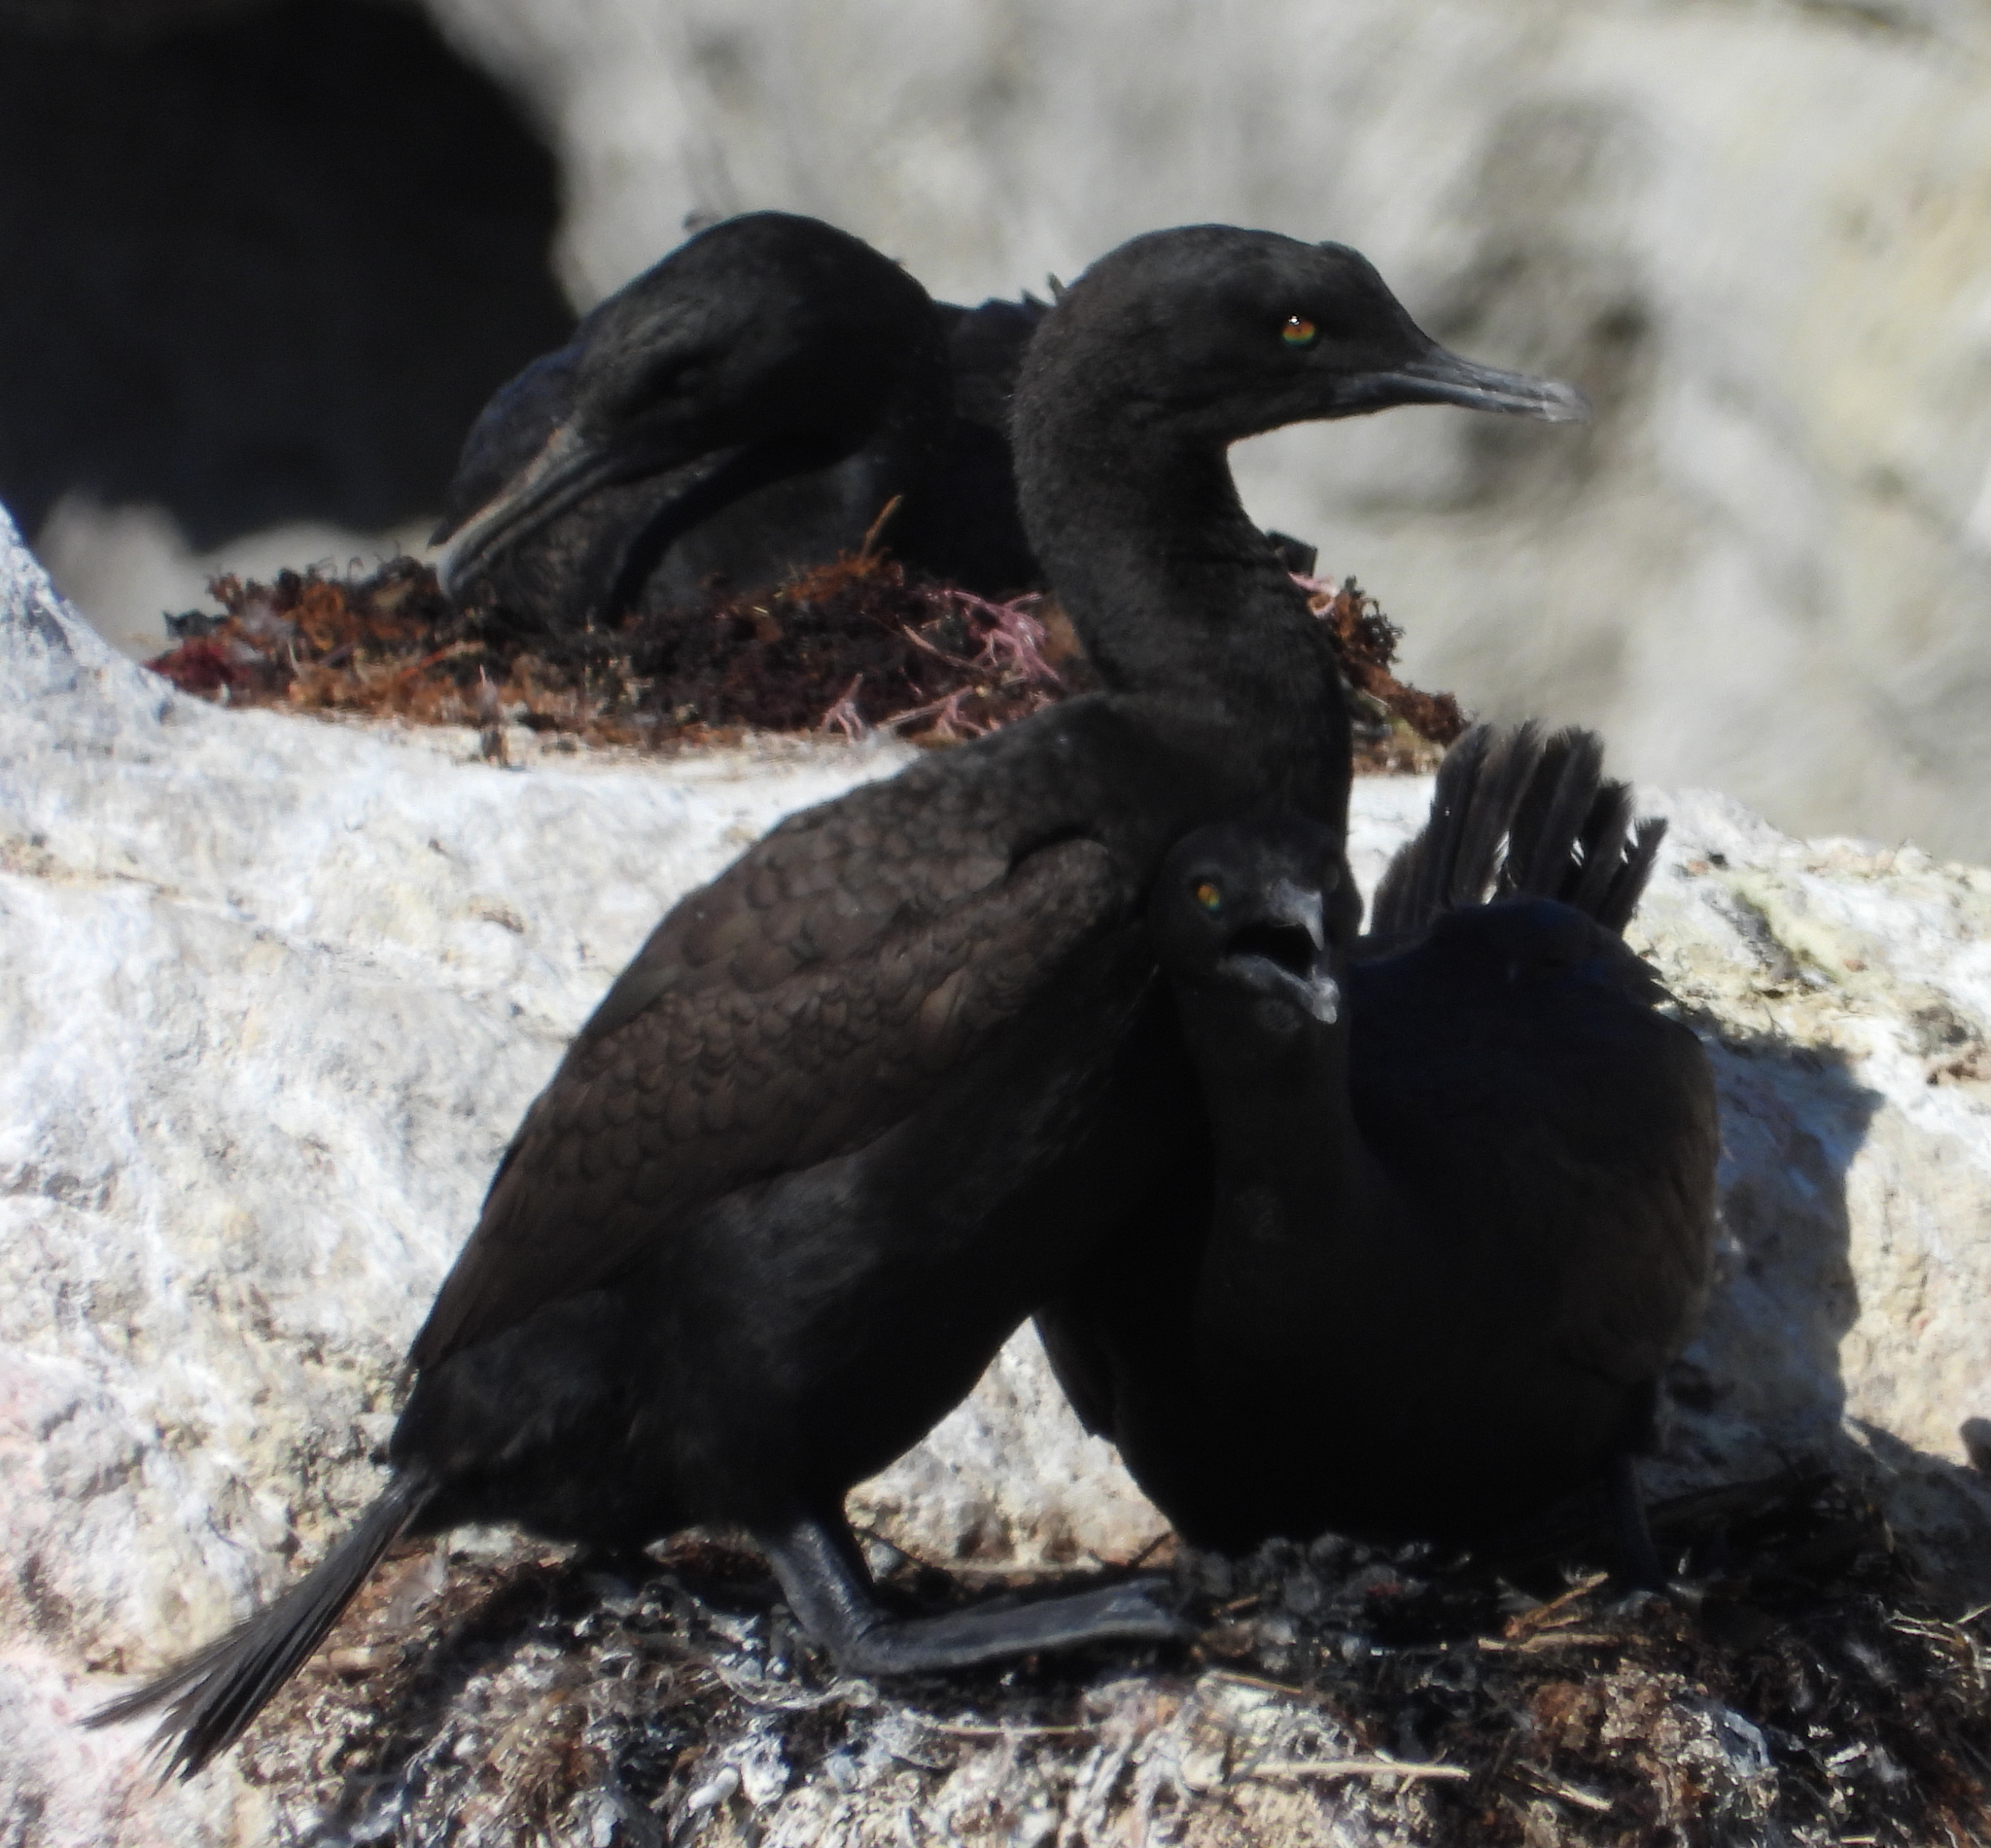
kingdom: Animalia
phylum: Chordata
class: Aves
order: Suliformes
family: Phalacrocoracidae
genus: Phalacrocorax
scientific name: Phalacrocorax neglectus
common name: Bank cormorant
